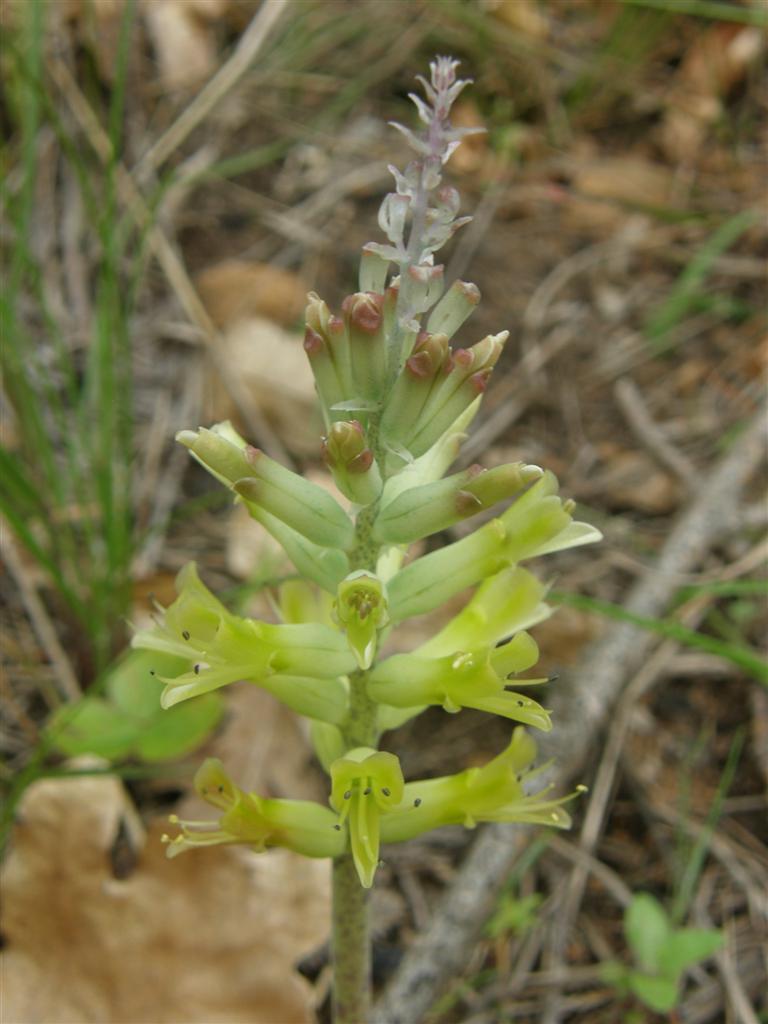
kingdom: Plantae
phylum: Tracheophyta
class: Liliopsida
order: Asparagales
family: Asparagaceae
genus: Lachenalia
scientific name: Lachenalia orchioides
